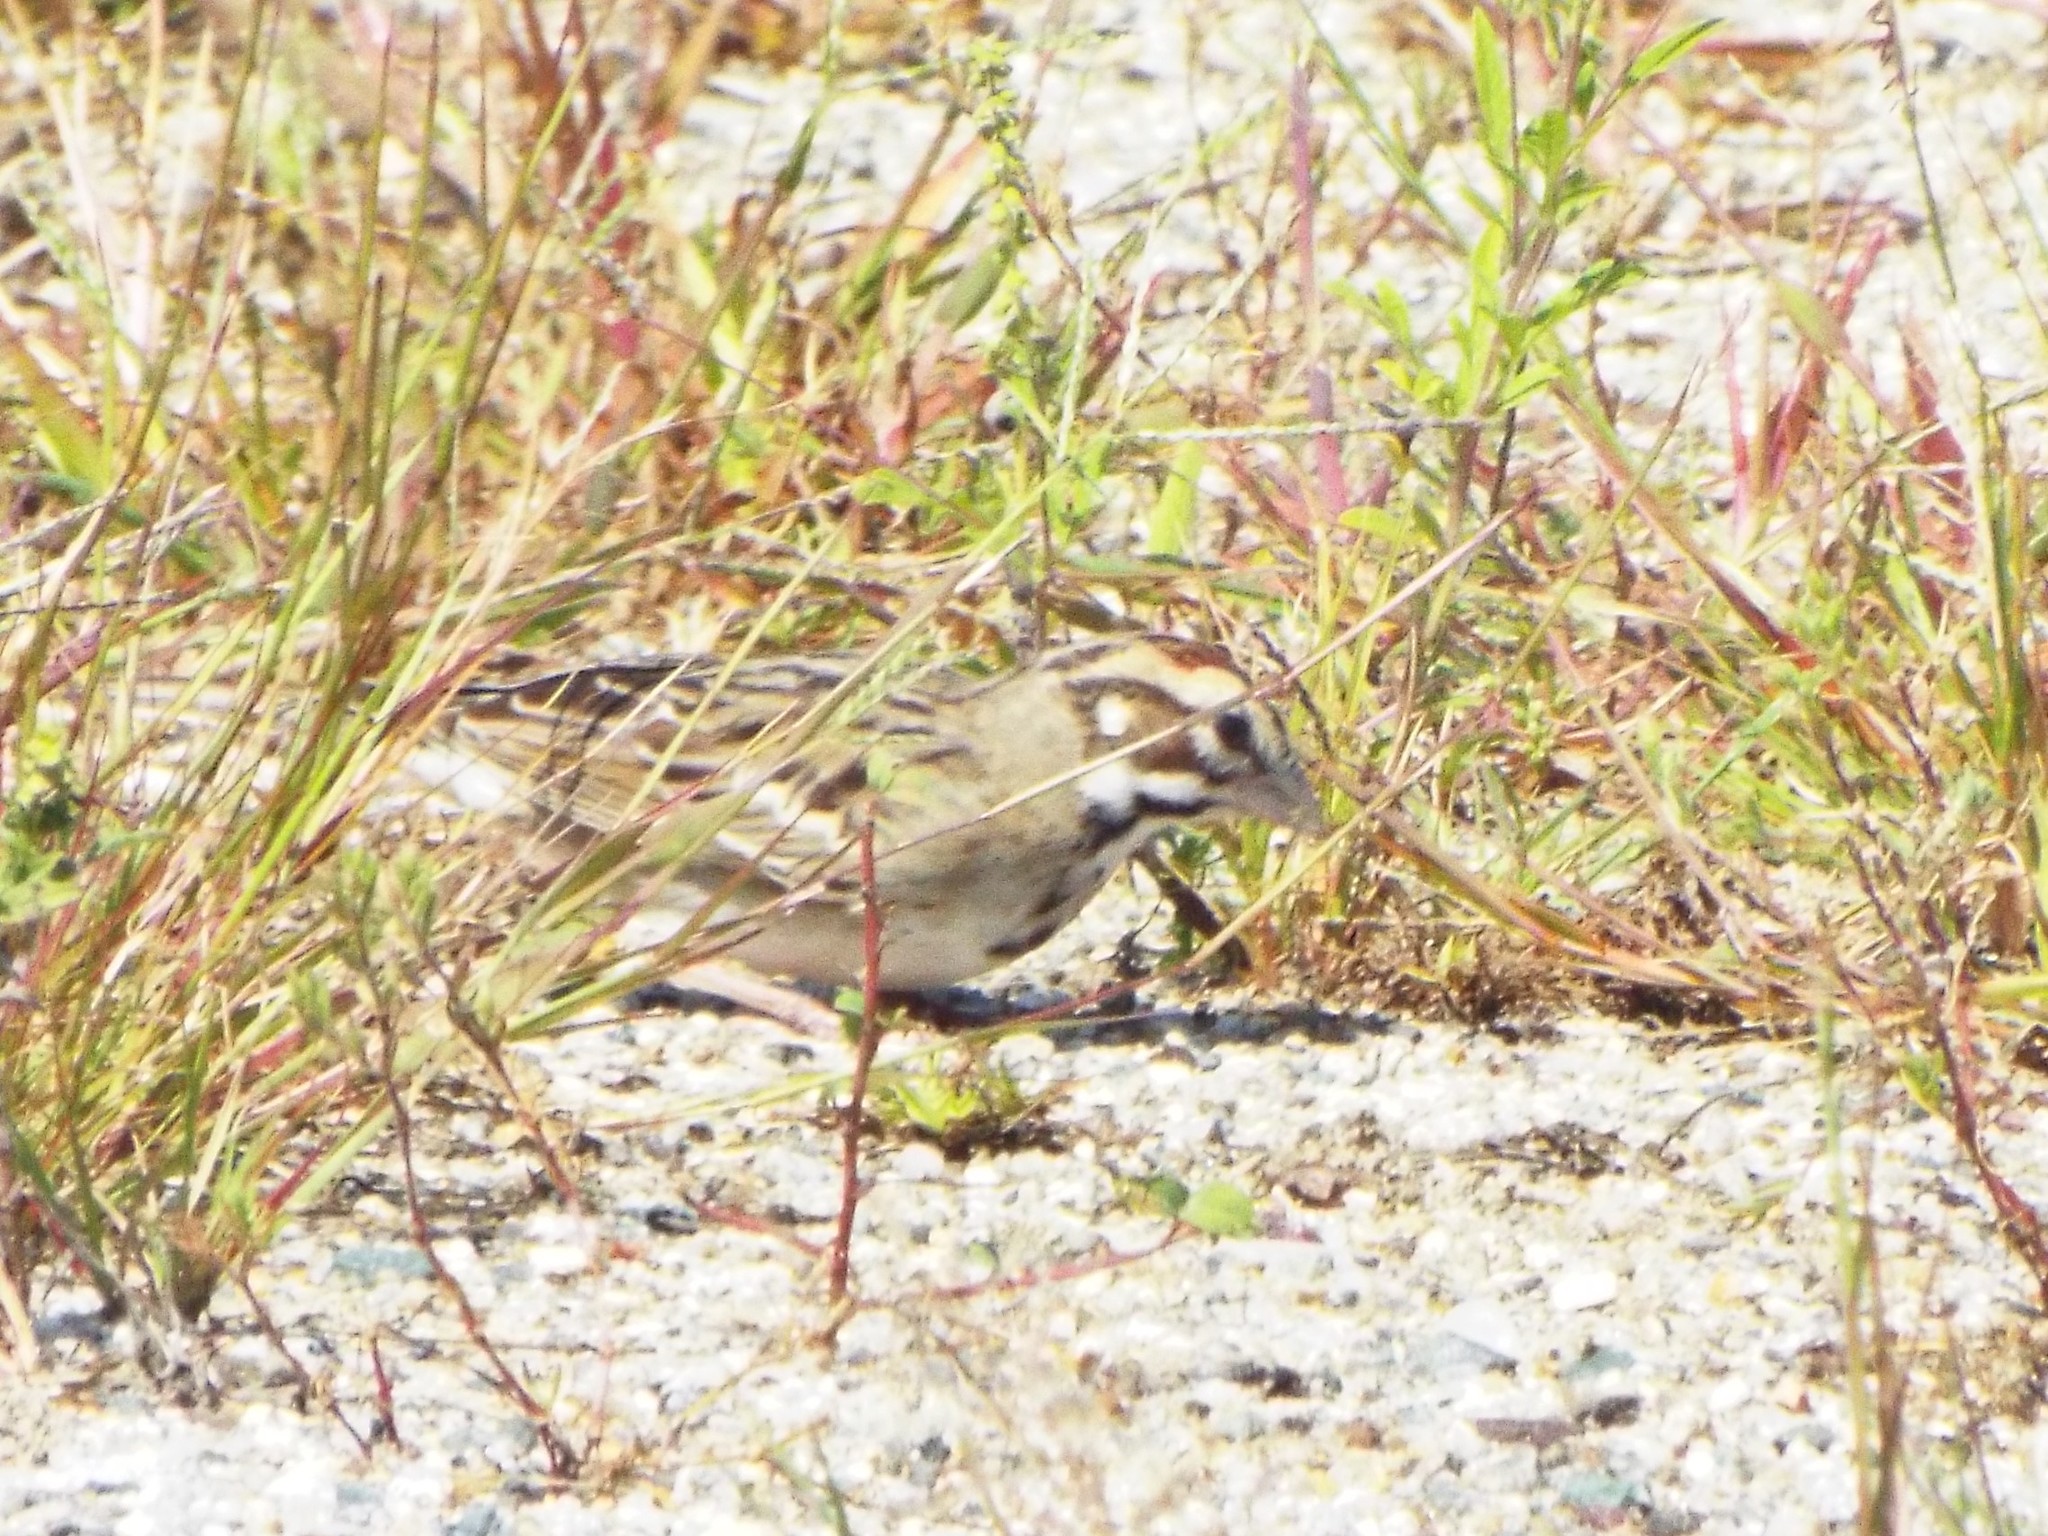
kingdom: Animalia
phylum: Chordata
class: Aves
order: Passeriformes
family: Passerellidae
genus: Chondestes
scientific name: Chondestes grammacus
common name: Lark sparrow
